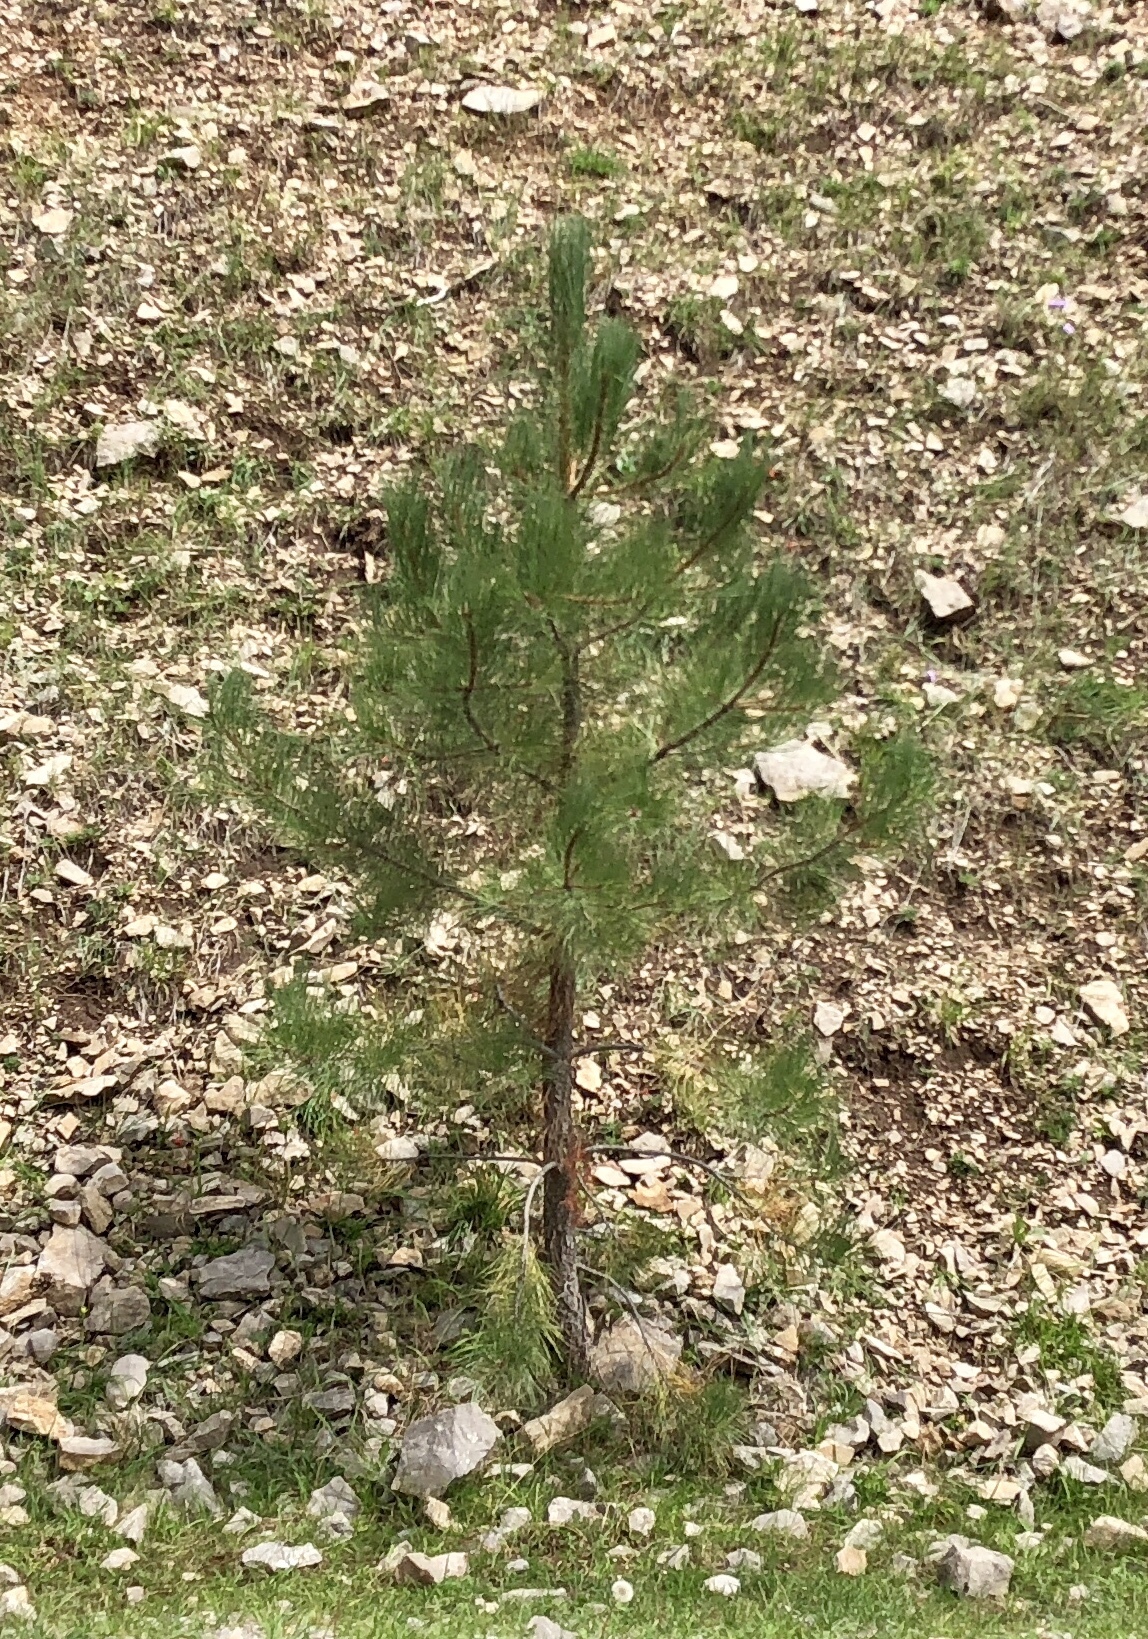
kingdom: Plantae
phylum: Tracheophyta
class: Pinopsida
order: Pinales
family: Pinaceae
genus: Pinus
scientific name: Pinus ponderosa
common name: Western yellow-pine
